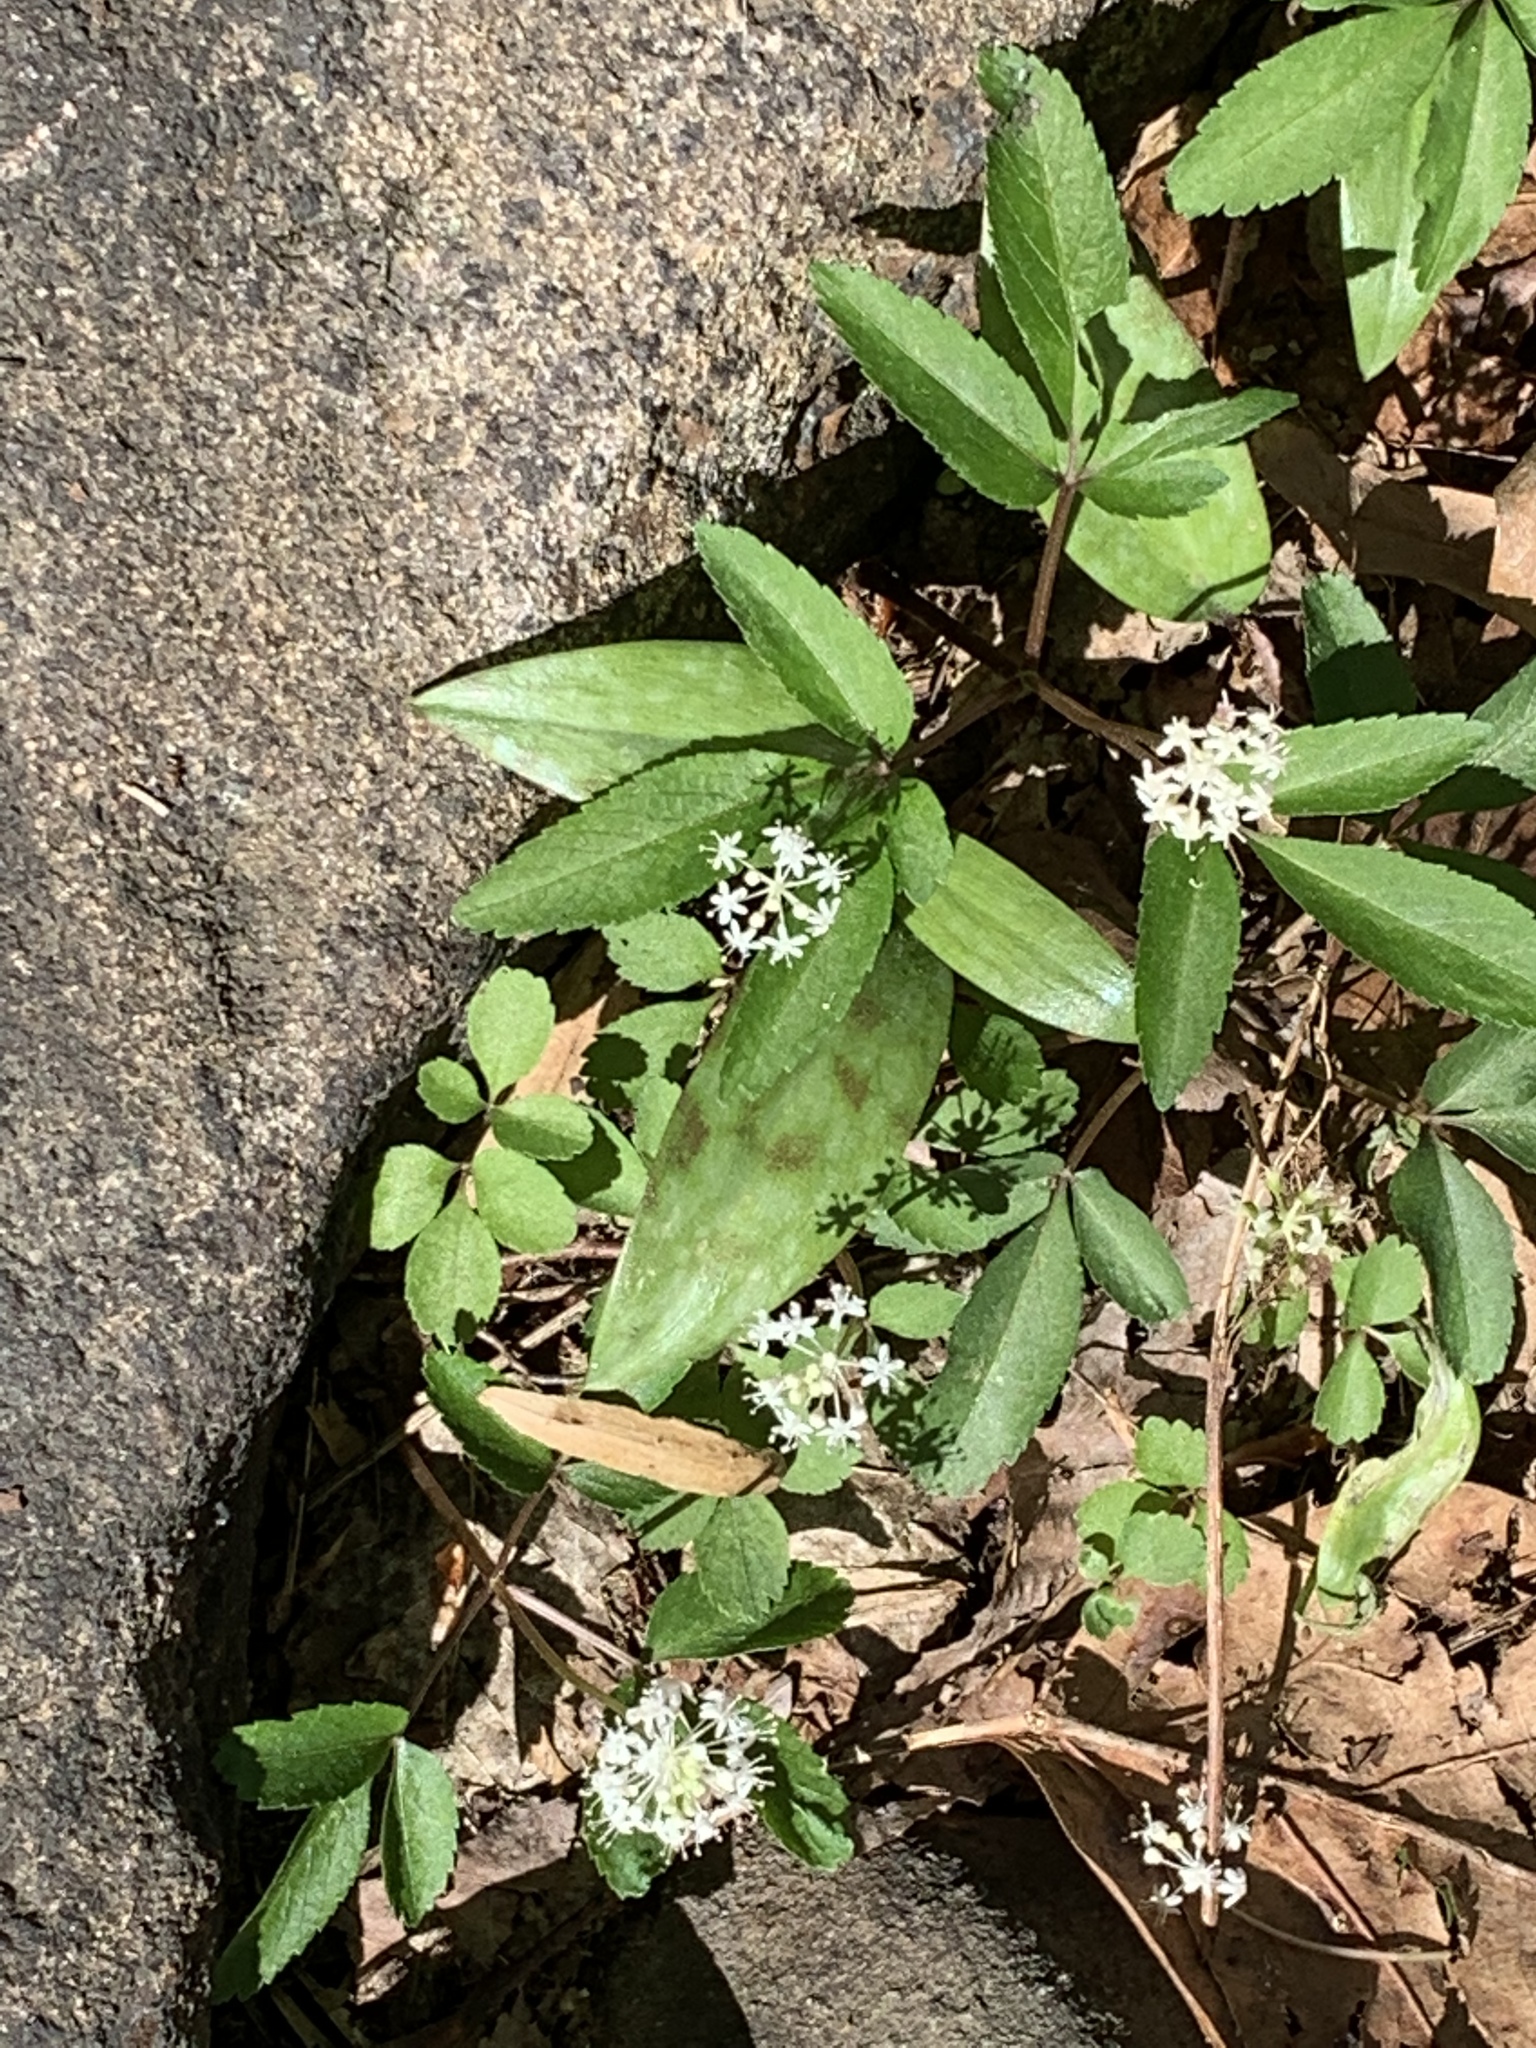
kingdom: Plantae
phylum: Tracheophyta
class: Magnoliopsida
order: Apiales
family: Araliaceae
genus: Panax
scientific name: Panax trifolius
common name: Dwarf ginseng
